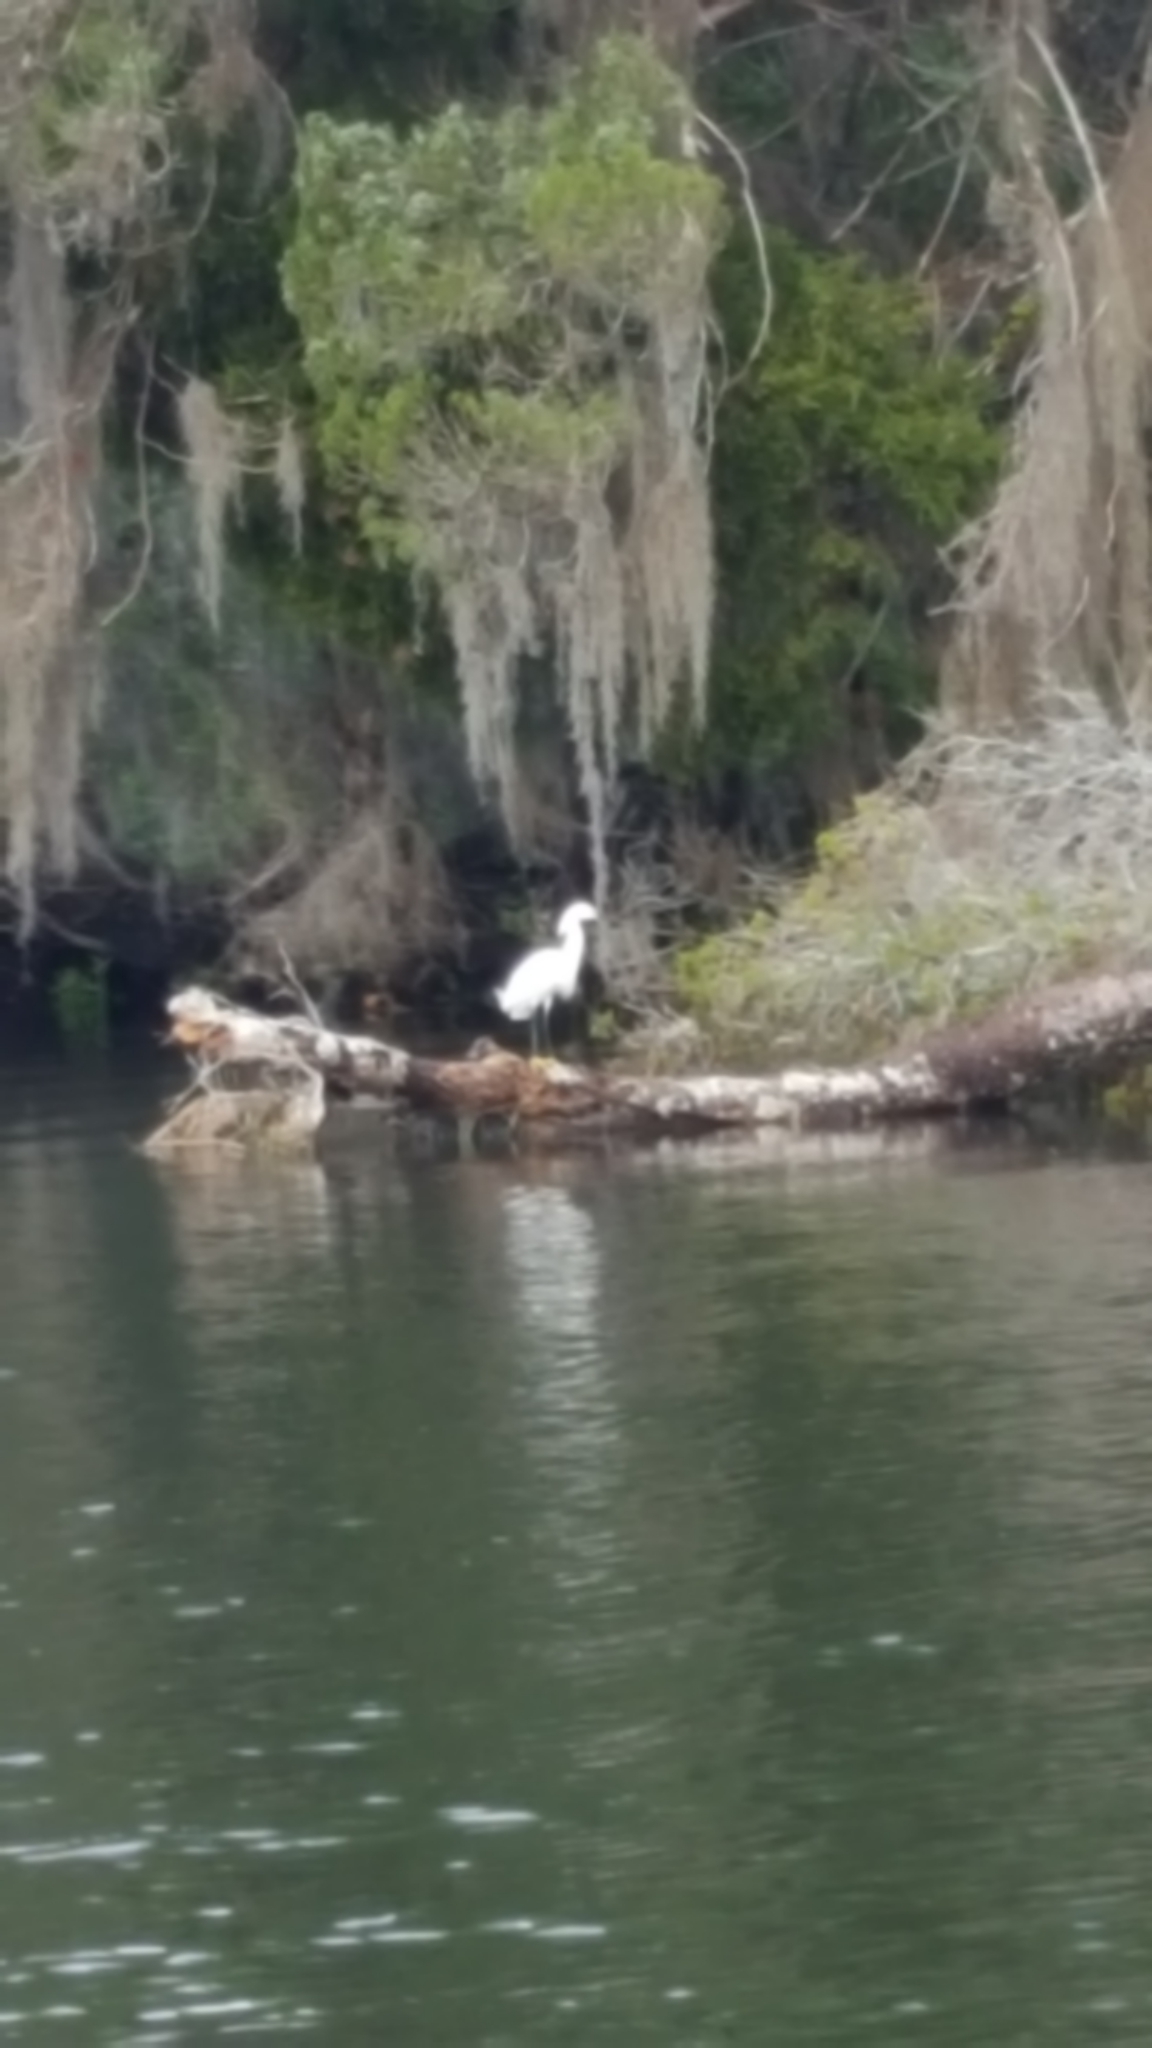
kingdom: Animalia
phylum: Chordata
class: Aves
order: Pelecaniformes
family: Ardeidae
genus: Egretta
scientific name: Egretta thula
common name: Snowy egret
